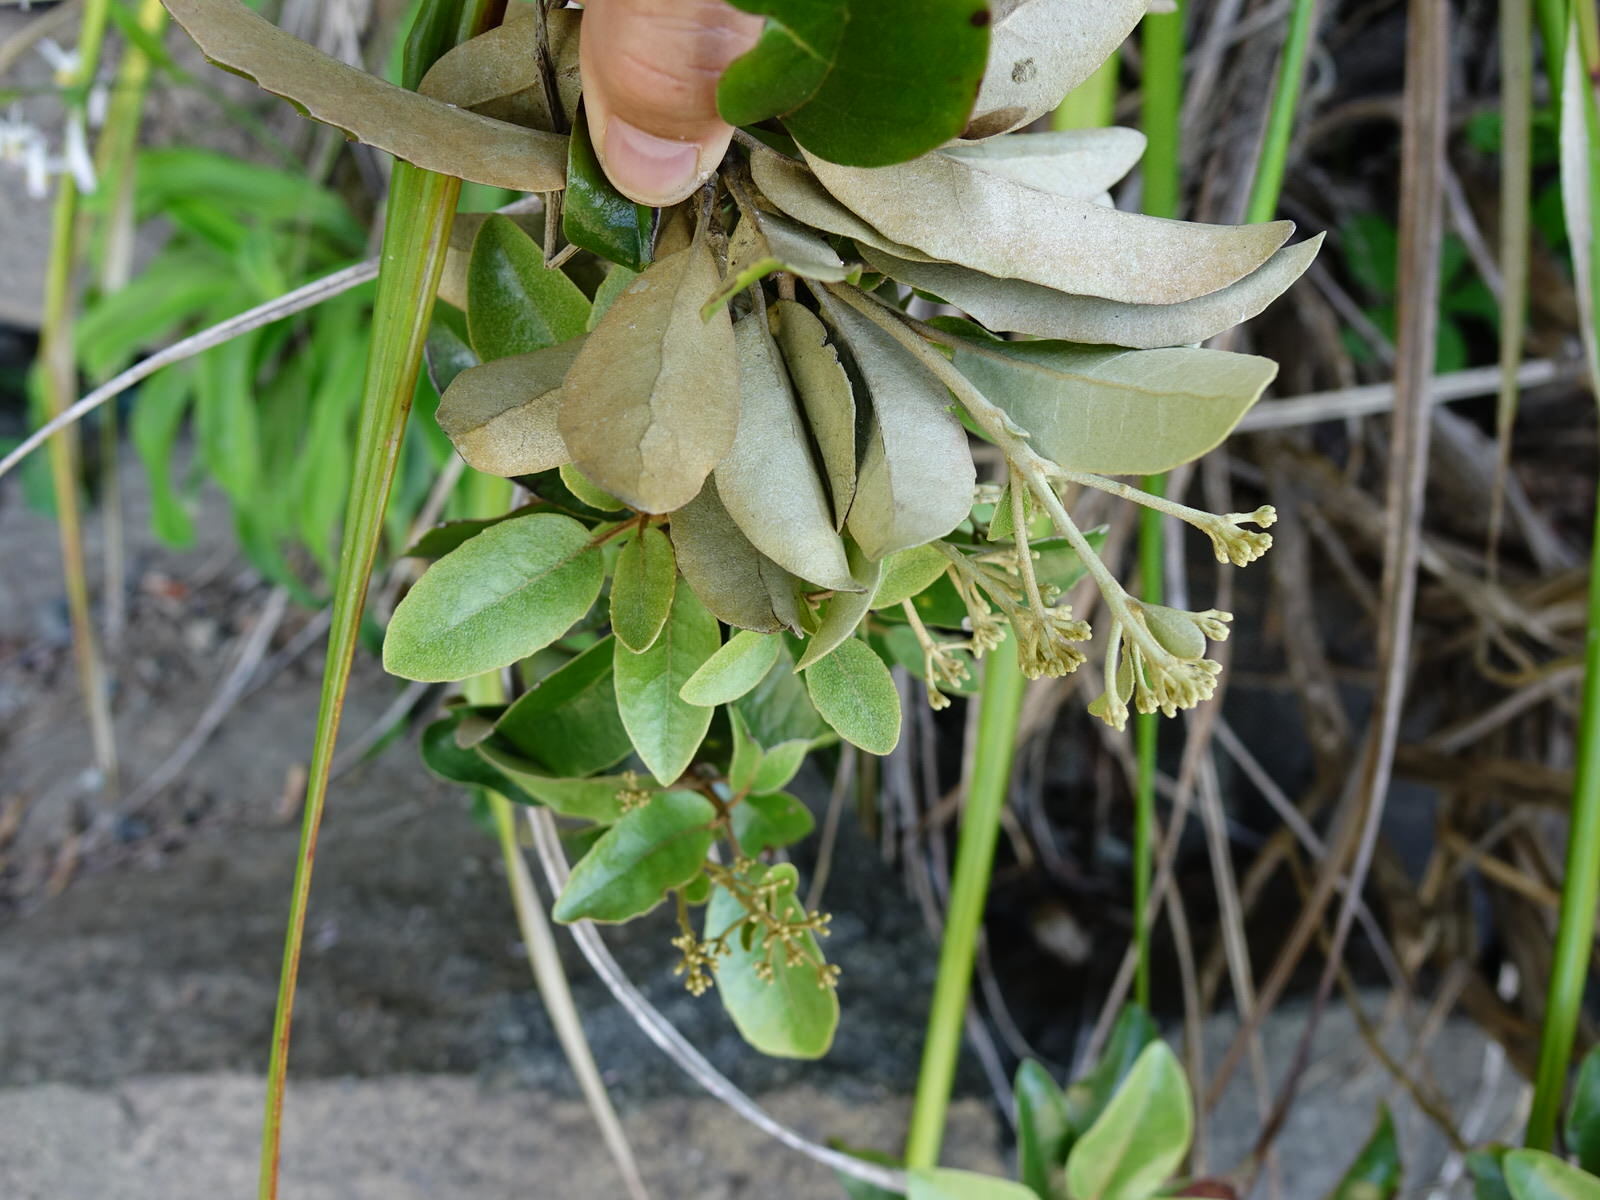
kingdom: Plantae
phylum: Tracheophyta
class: Magnoliopsida
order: Asterales
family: Asteraceae
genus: Olearia
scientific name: Olearia furfuracea
